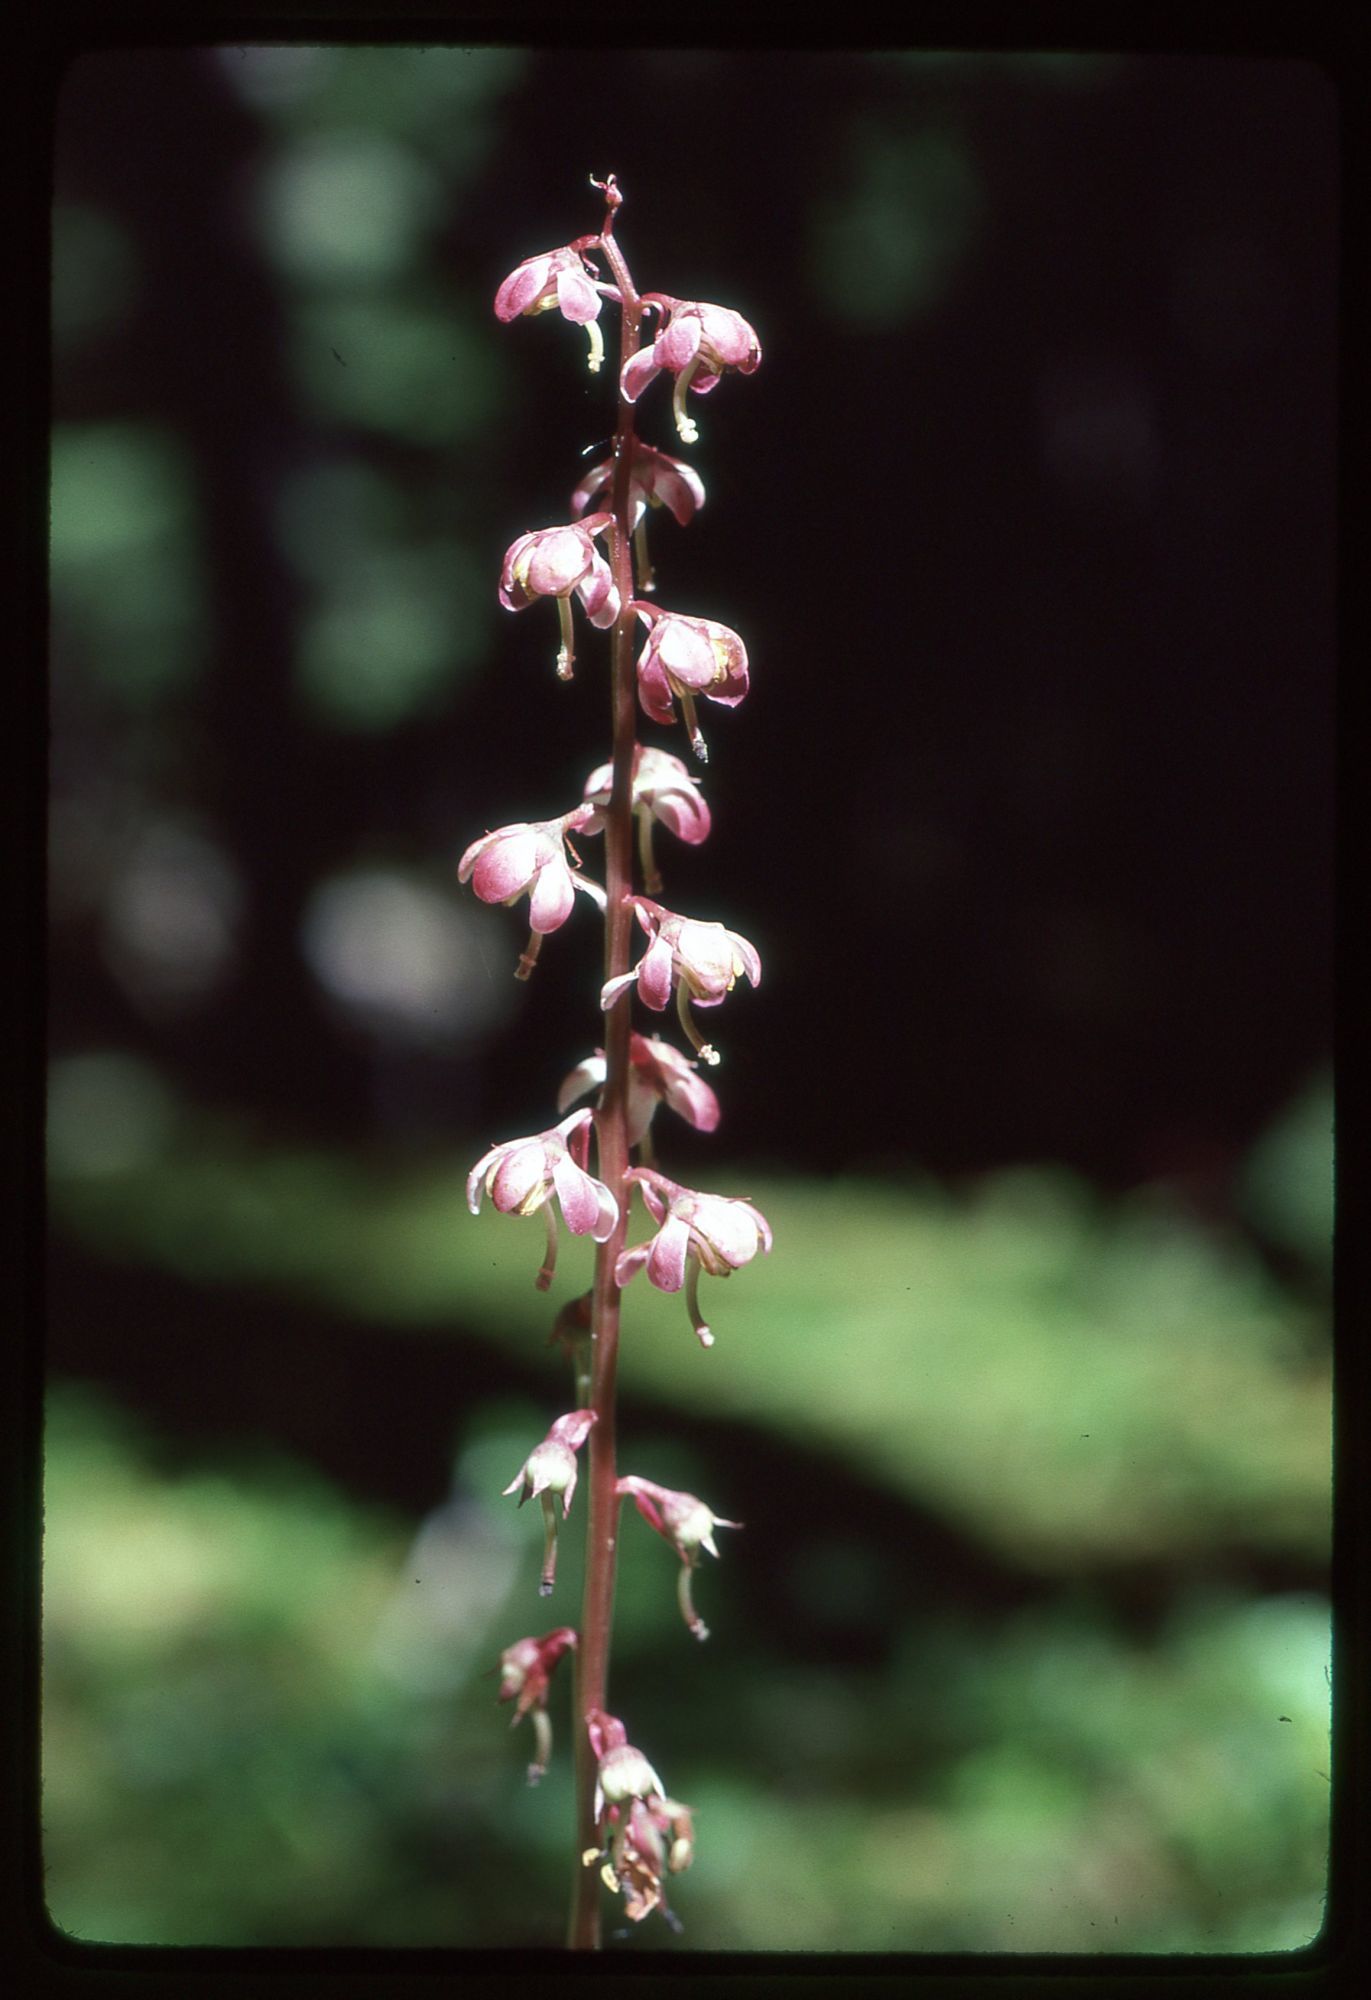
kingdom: Plantae
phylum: Tracheophyta
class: Magnoliopsida
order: Ericales
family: Ericaceae
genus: Pyrola
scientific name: Pyrola asarifolia
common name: Bog wintergreen
